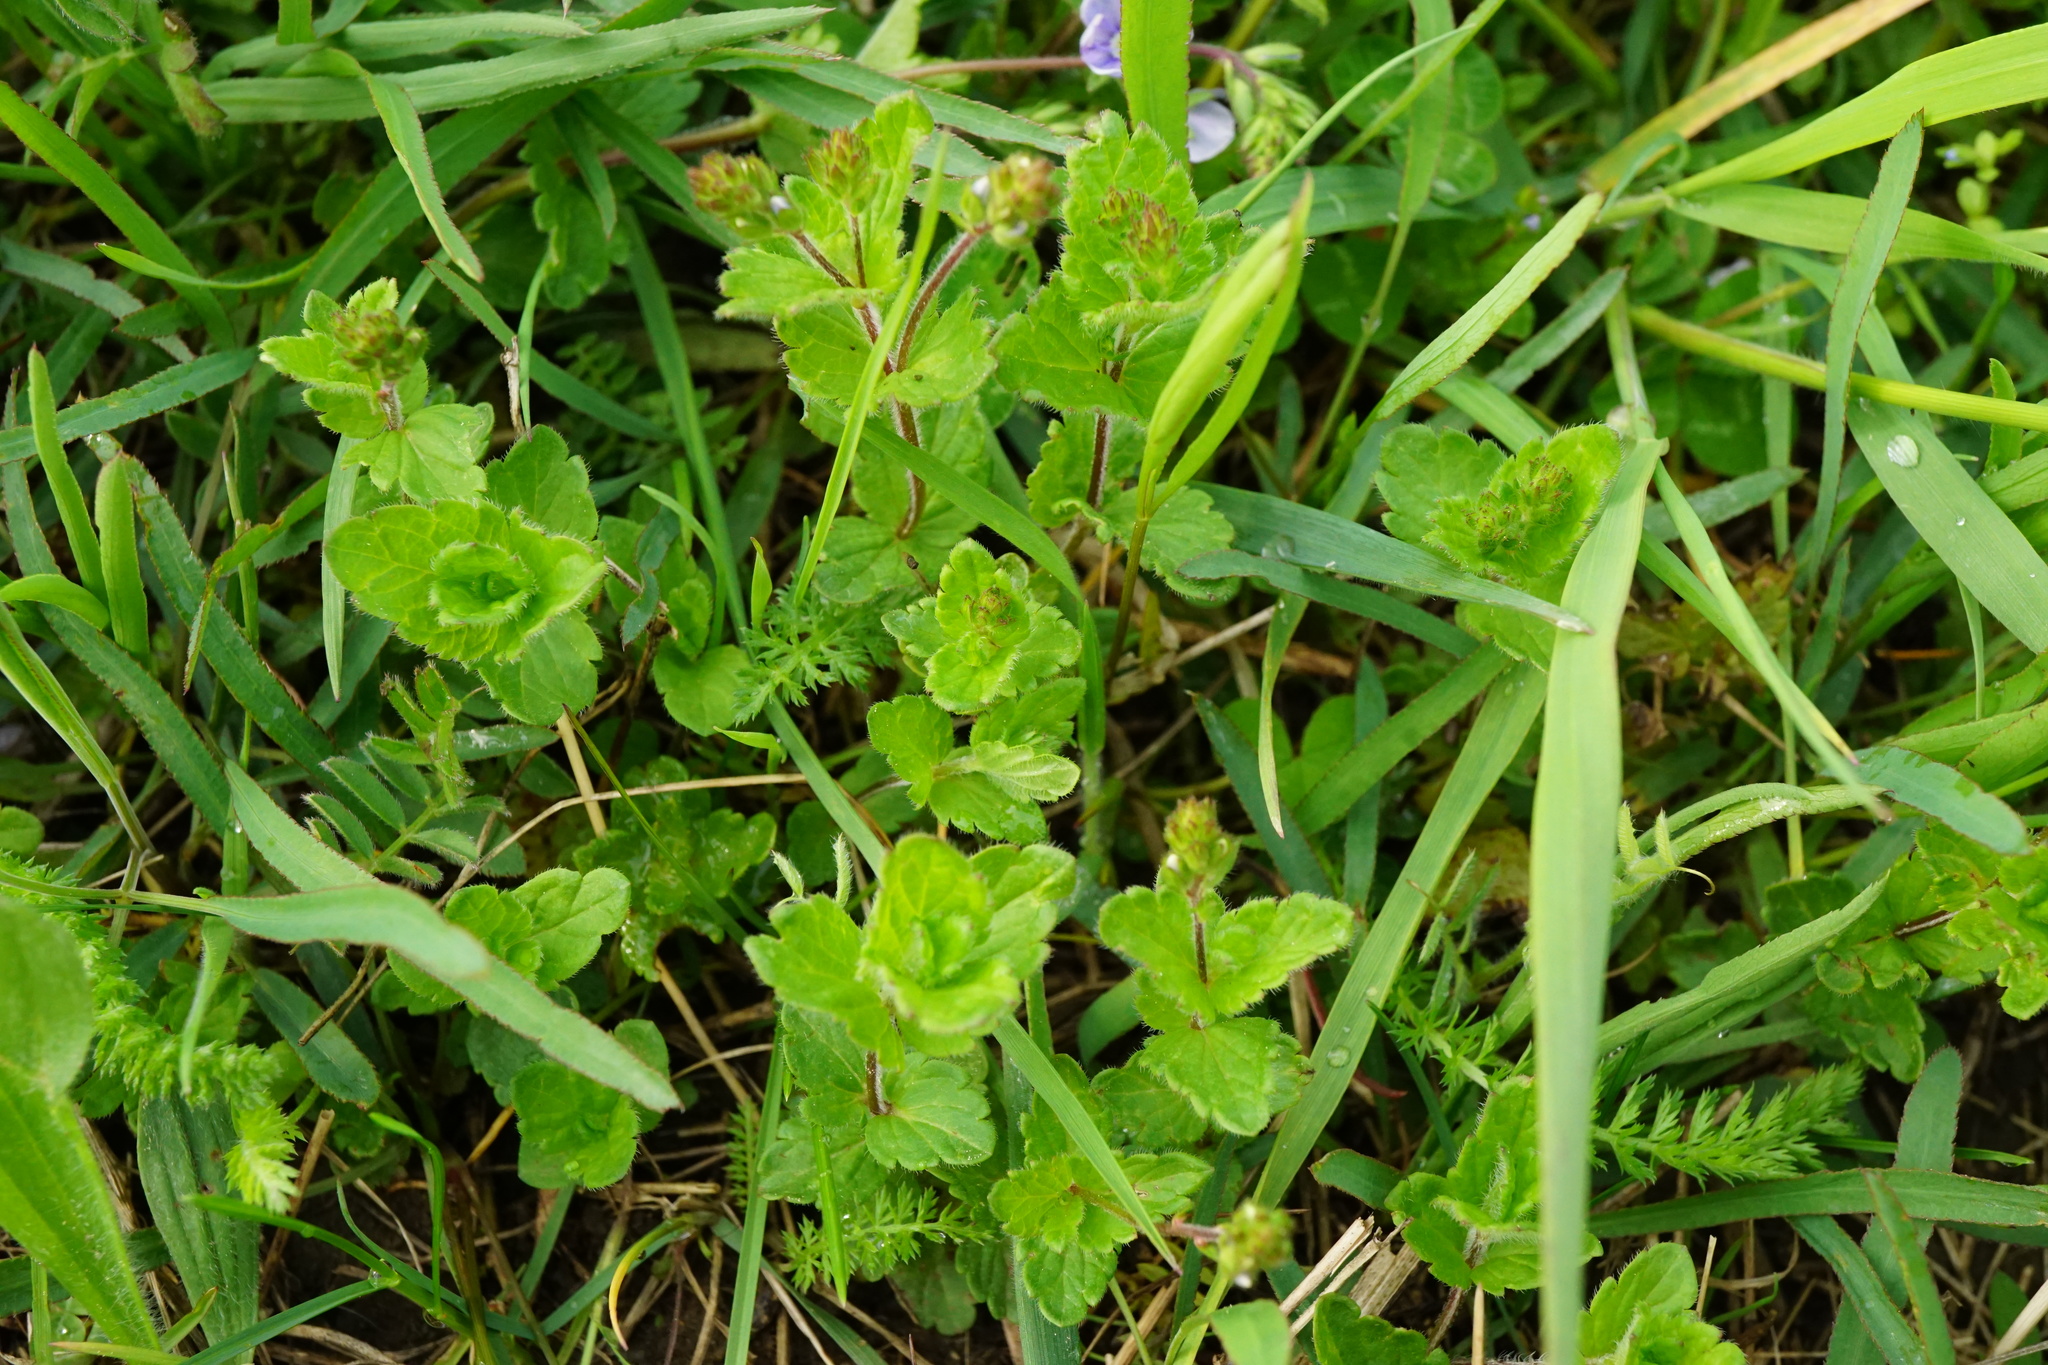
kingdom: Plantae
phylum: Tracheophyta
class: Magnoliopsida
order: Lamiales
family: Plantaginaceae
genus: Veronica
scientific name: Veronica chamaedrys
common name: Germander speedwell
